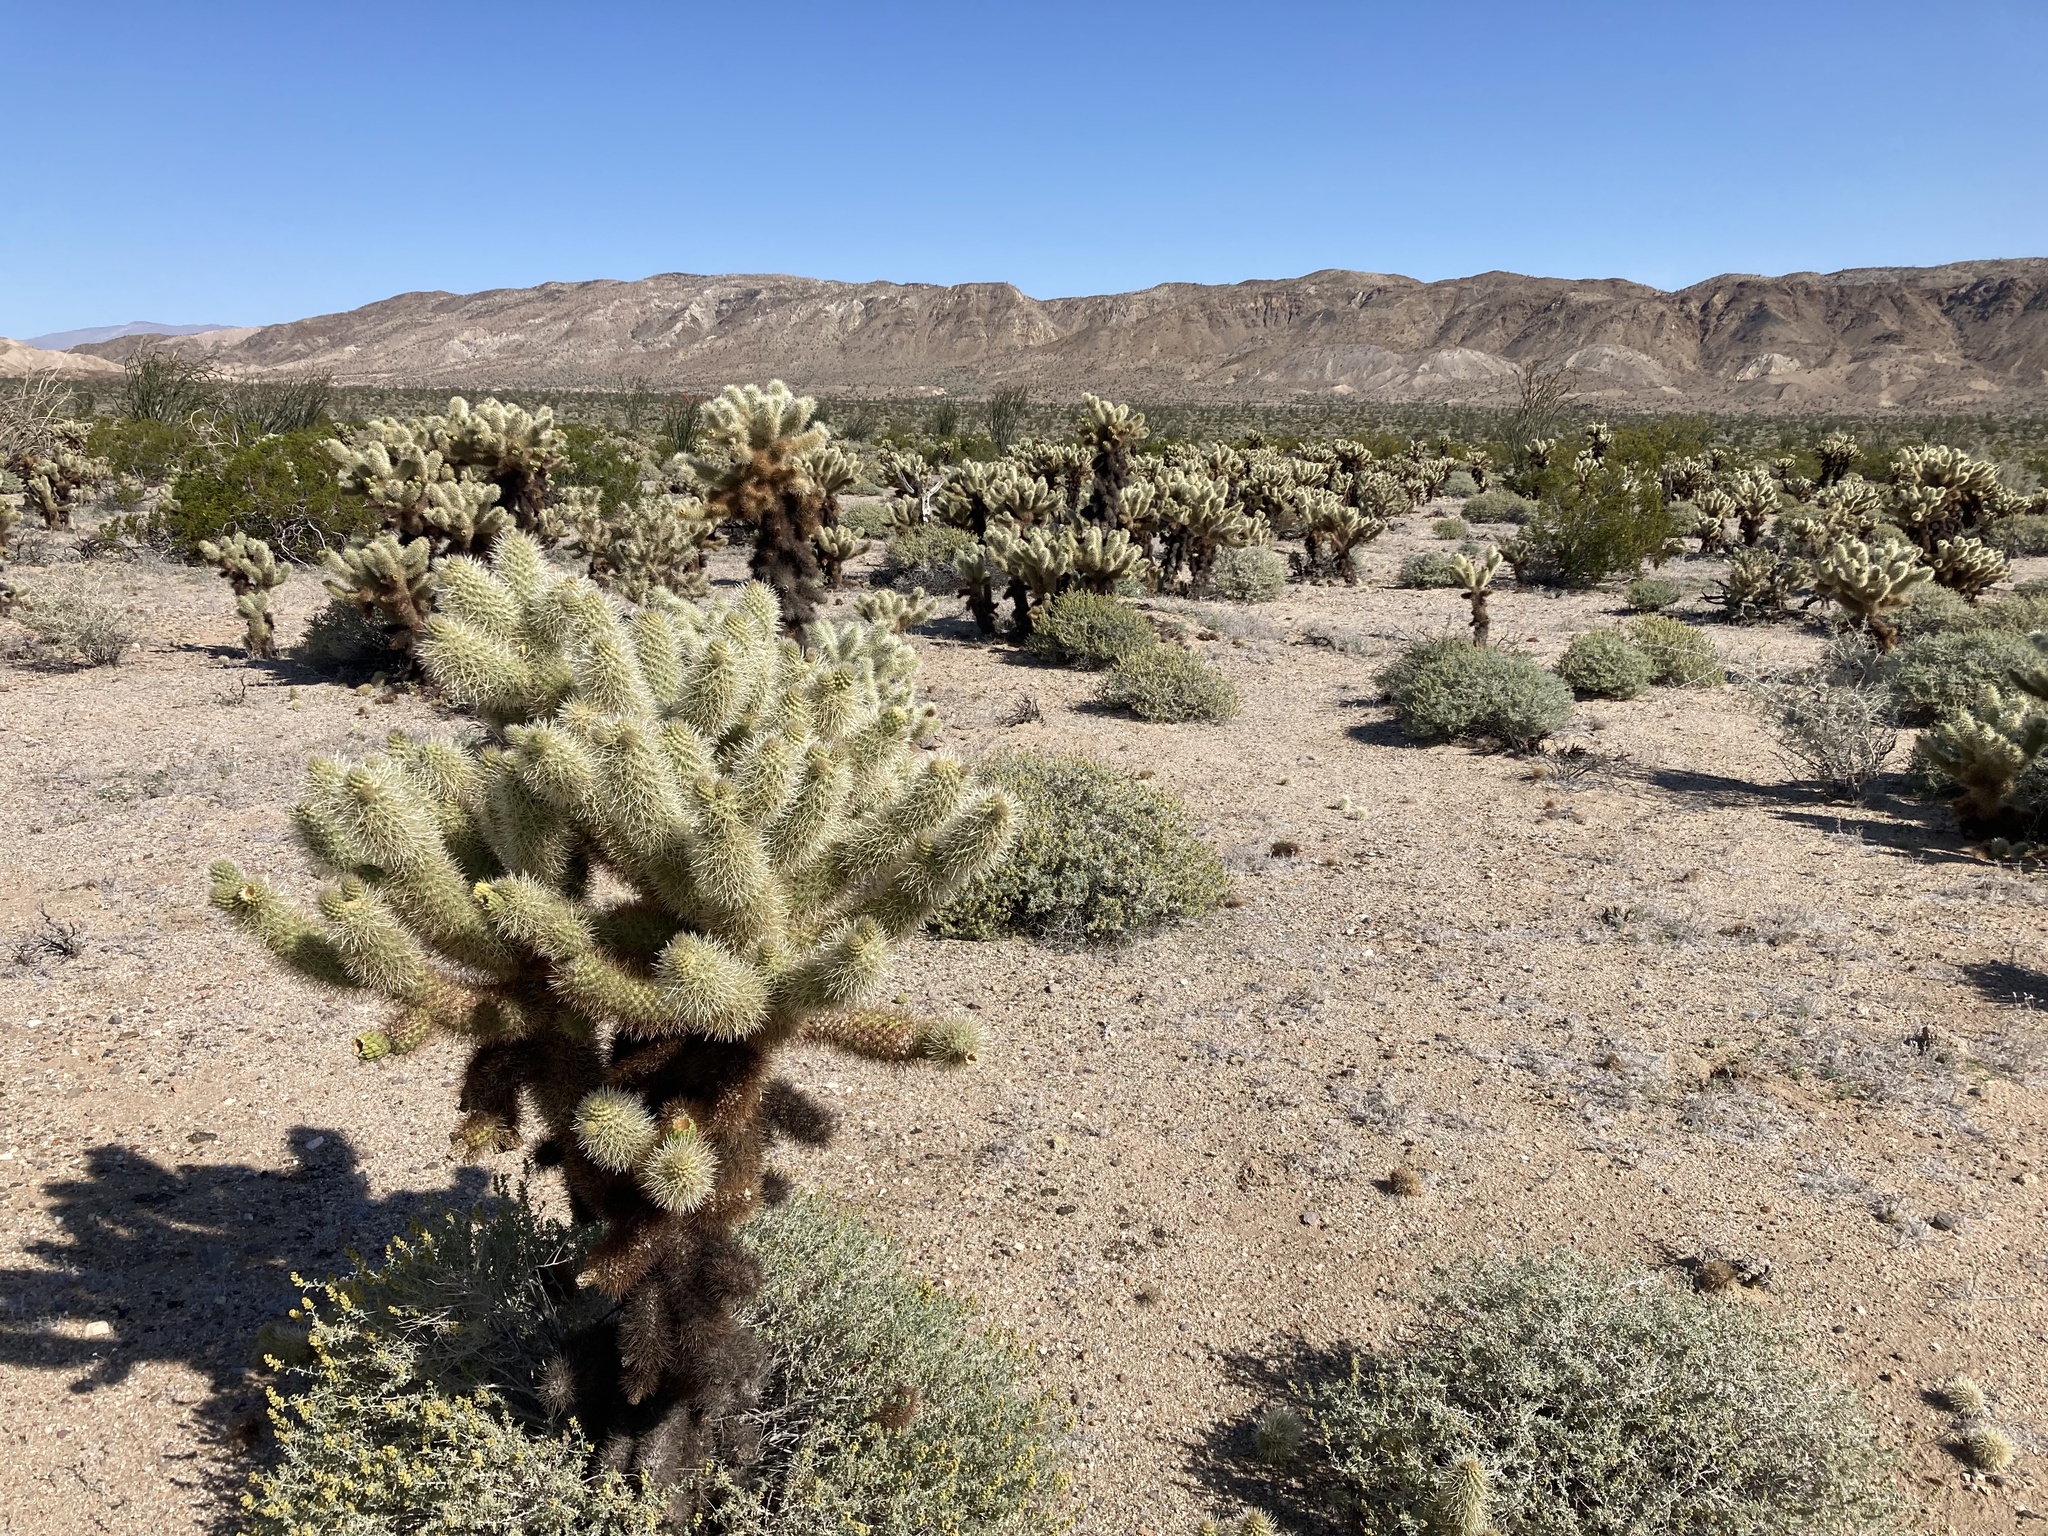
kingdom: Plantae
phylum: Tracheophyta
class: Magnoliopsida
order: Caryophyllales
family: Cactaceae
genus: Cylindropuntia
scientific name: Cylindropuntia fosbergii
